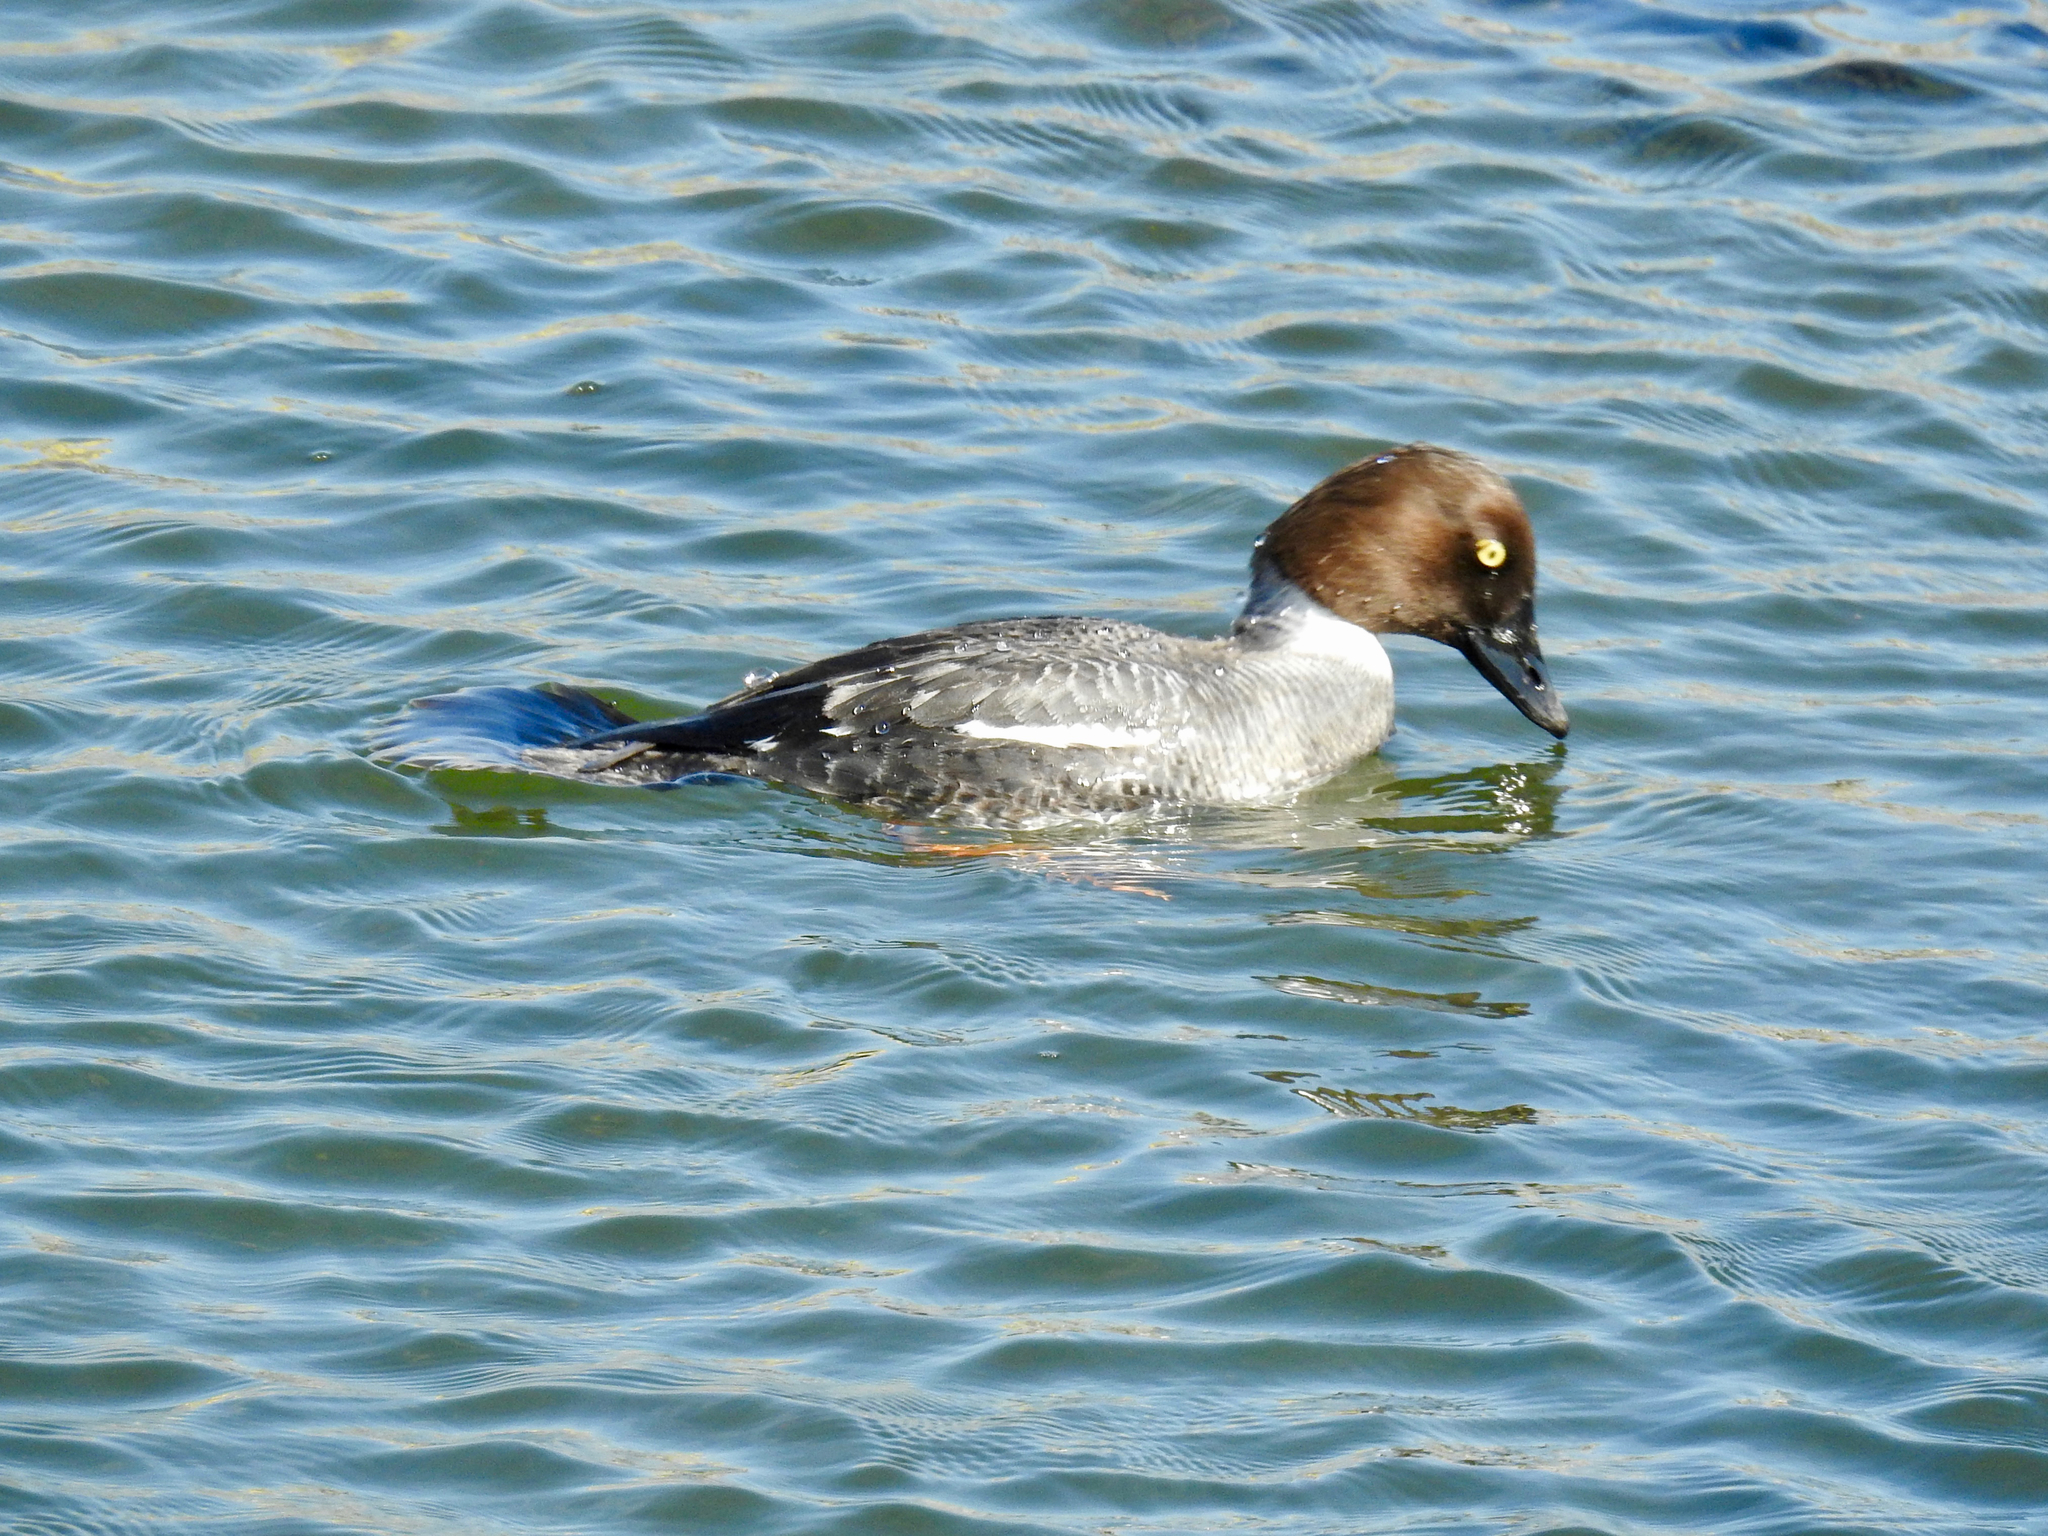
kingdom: Animalia
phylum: Chordata
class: Aves
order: Anseriformes
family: Anatidae
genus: Bucephala
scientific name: Bucephala clangula
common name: Common goldeneye
